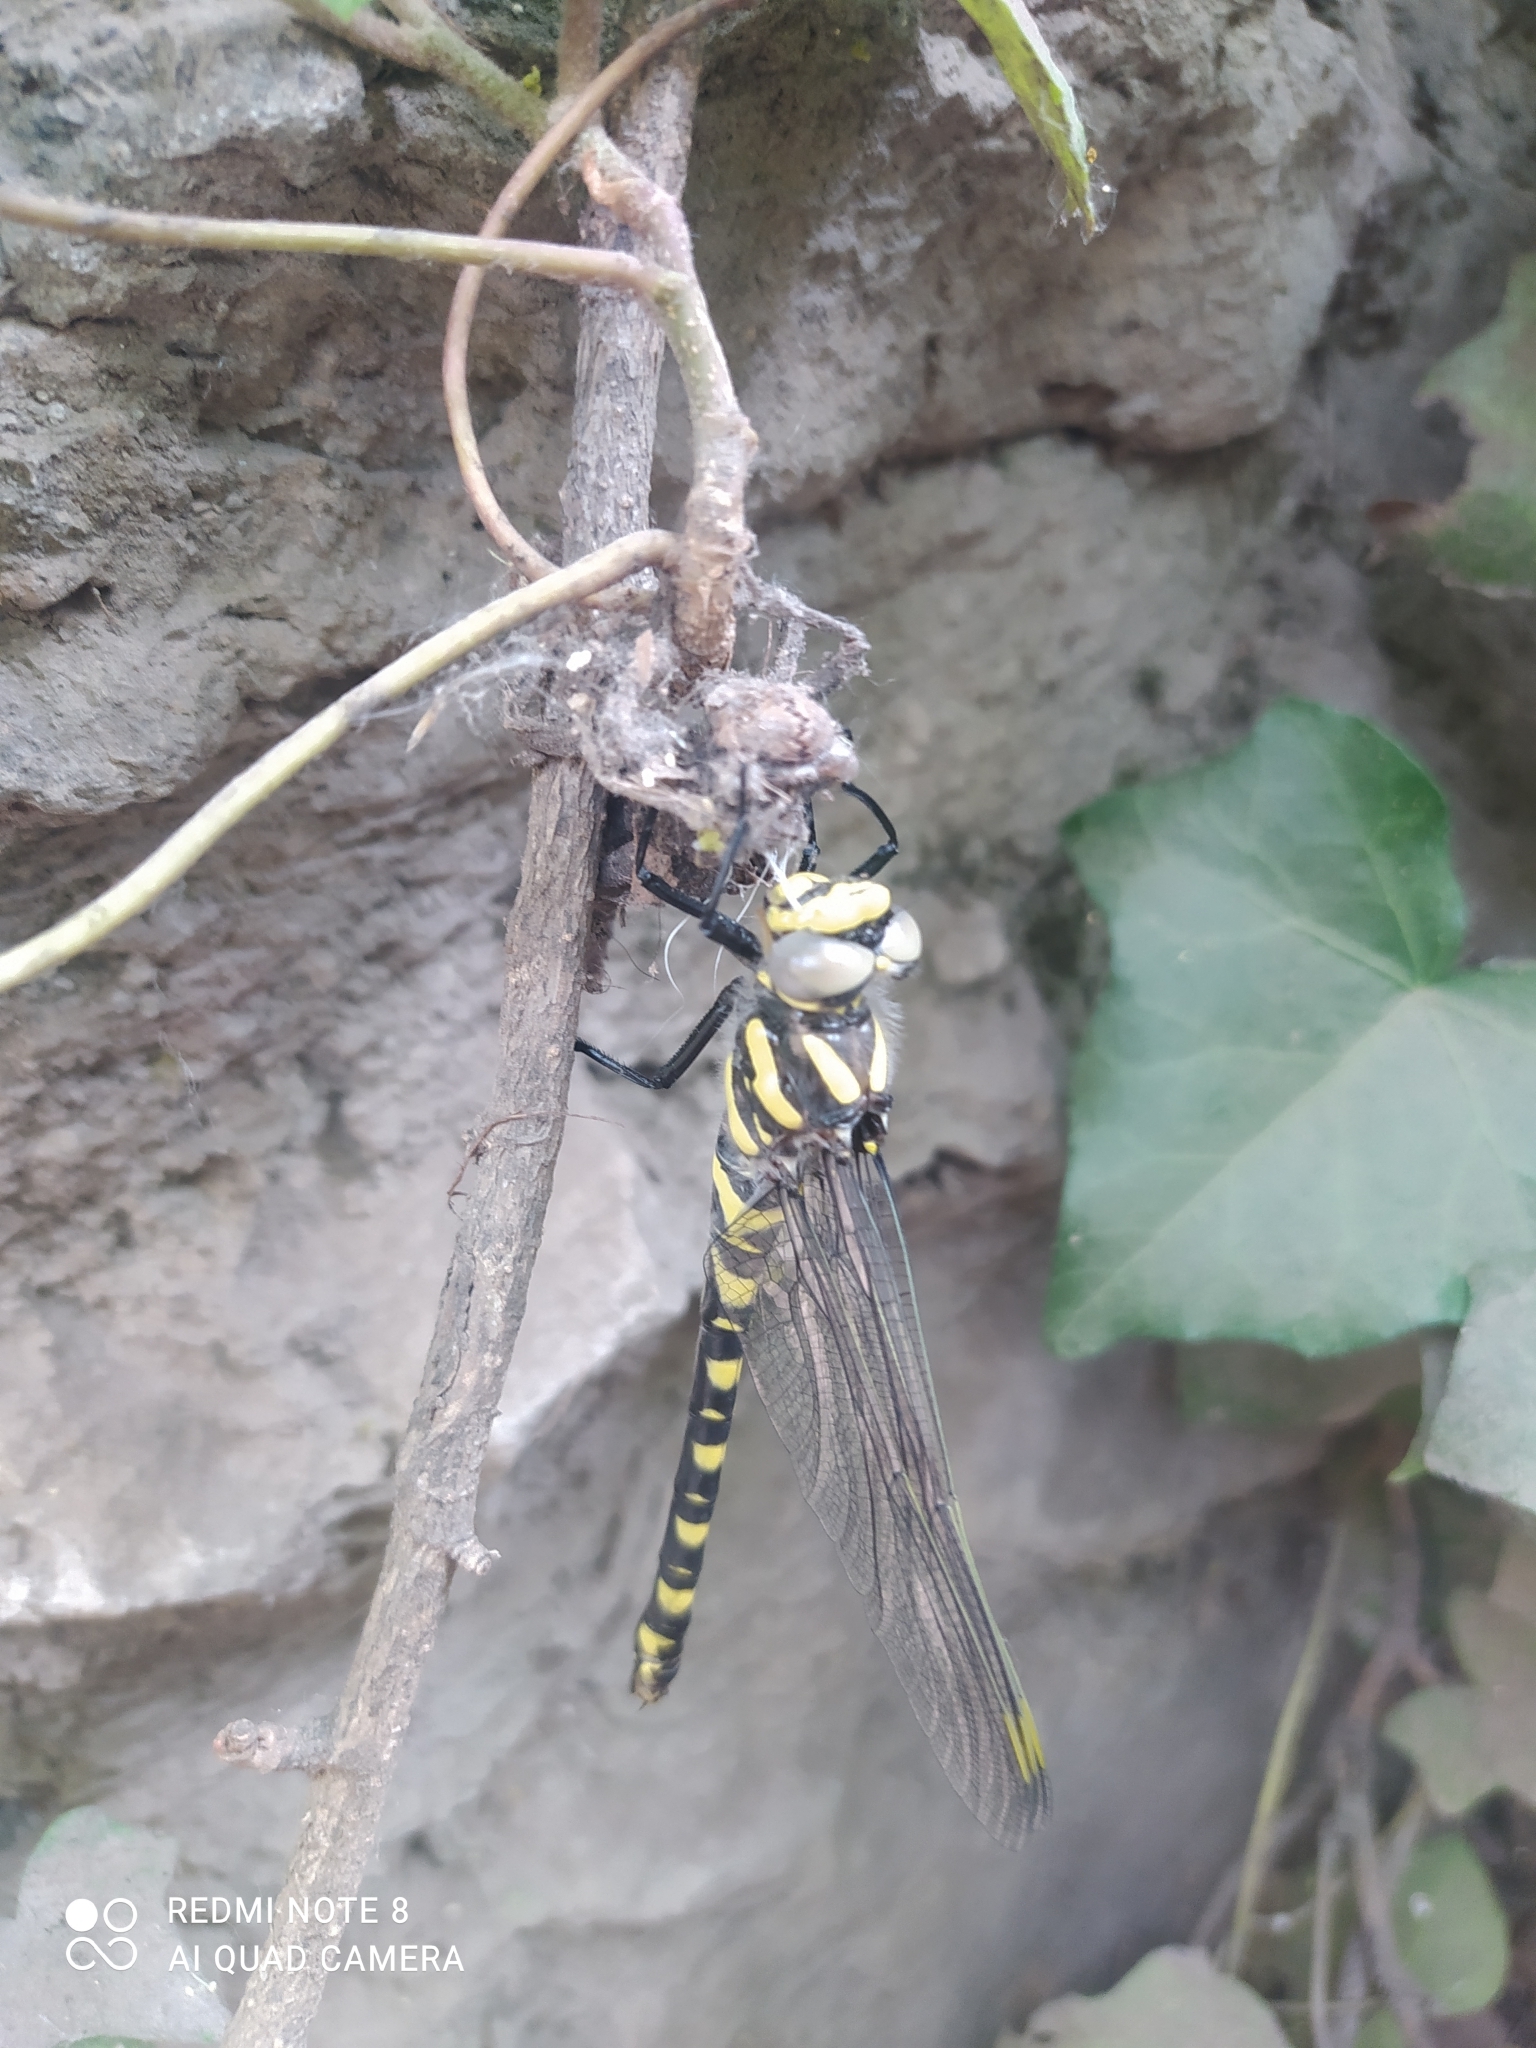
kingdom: Animalia
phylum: Arthropoda
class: Insecta
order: Odonata
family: Cordulegastridae
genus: Cordulegaster
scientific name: Cordulegaster boltonii
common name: Golden-ringed dragonfly
